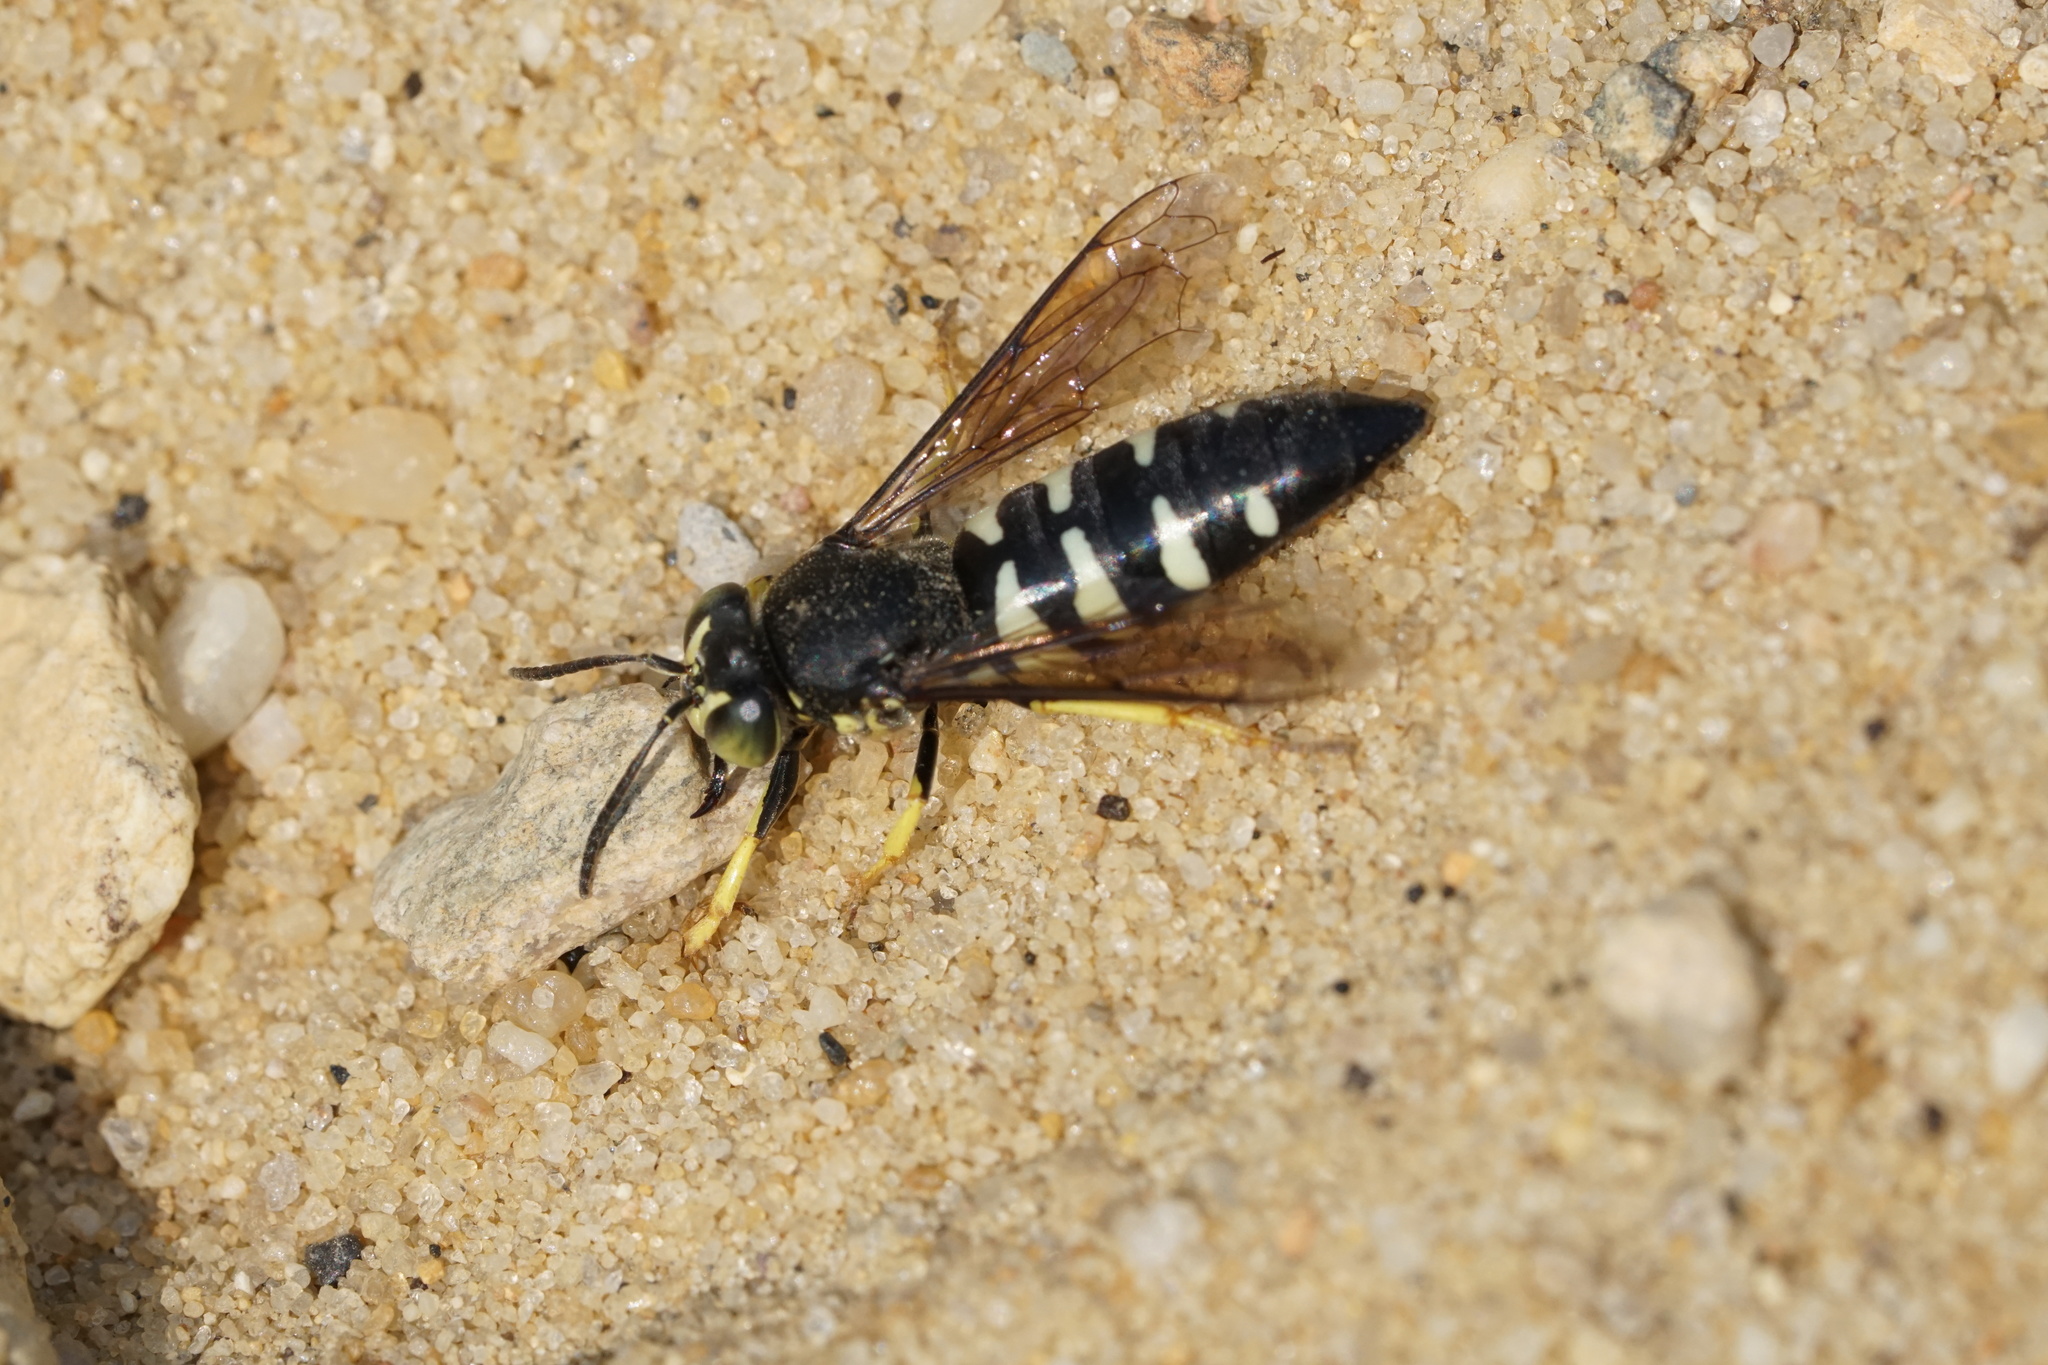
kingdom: Animalia
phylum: Arthropoda
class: Insecta
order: Hymenoptera
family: Crabronidae
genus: Bicyrtes
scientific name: Bicyrtes quadrifasciatus
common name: Four-banded stink bug hunter wasp
